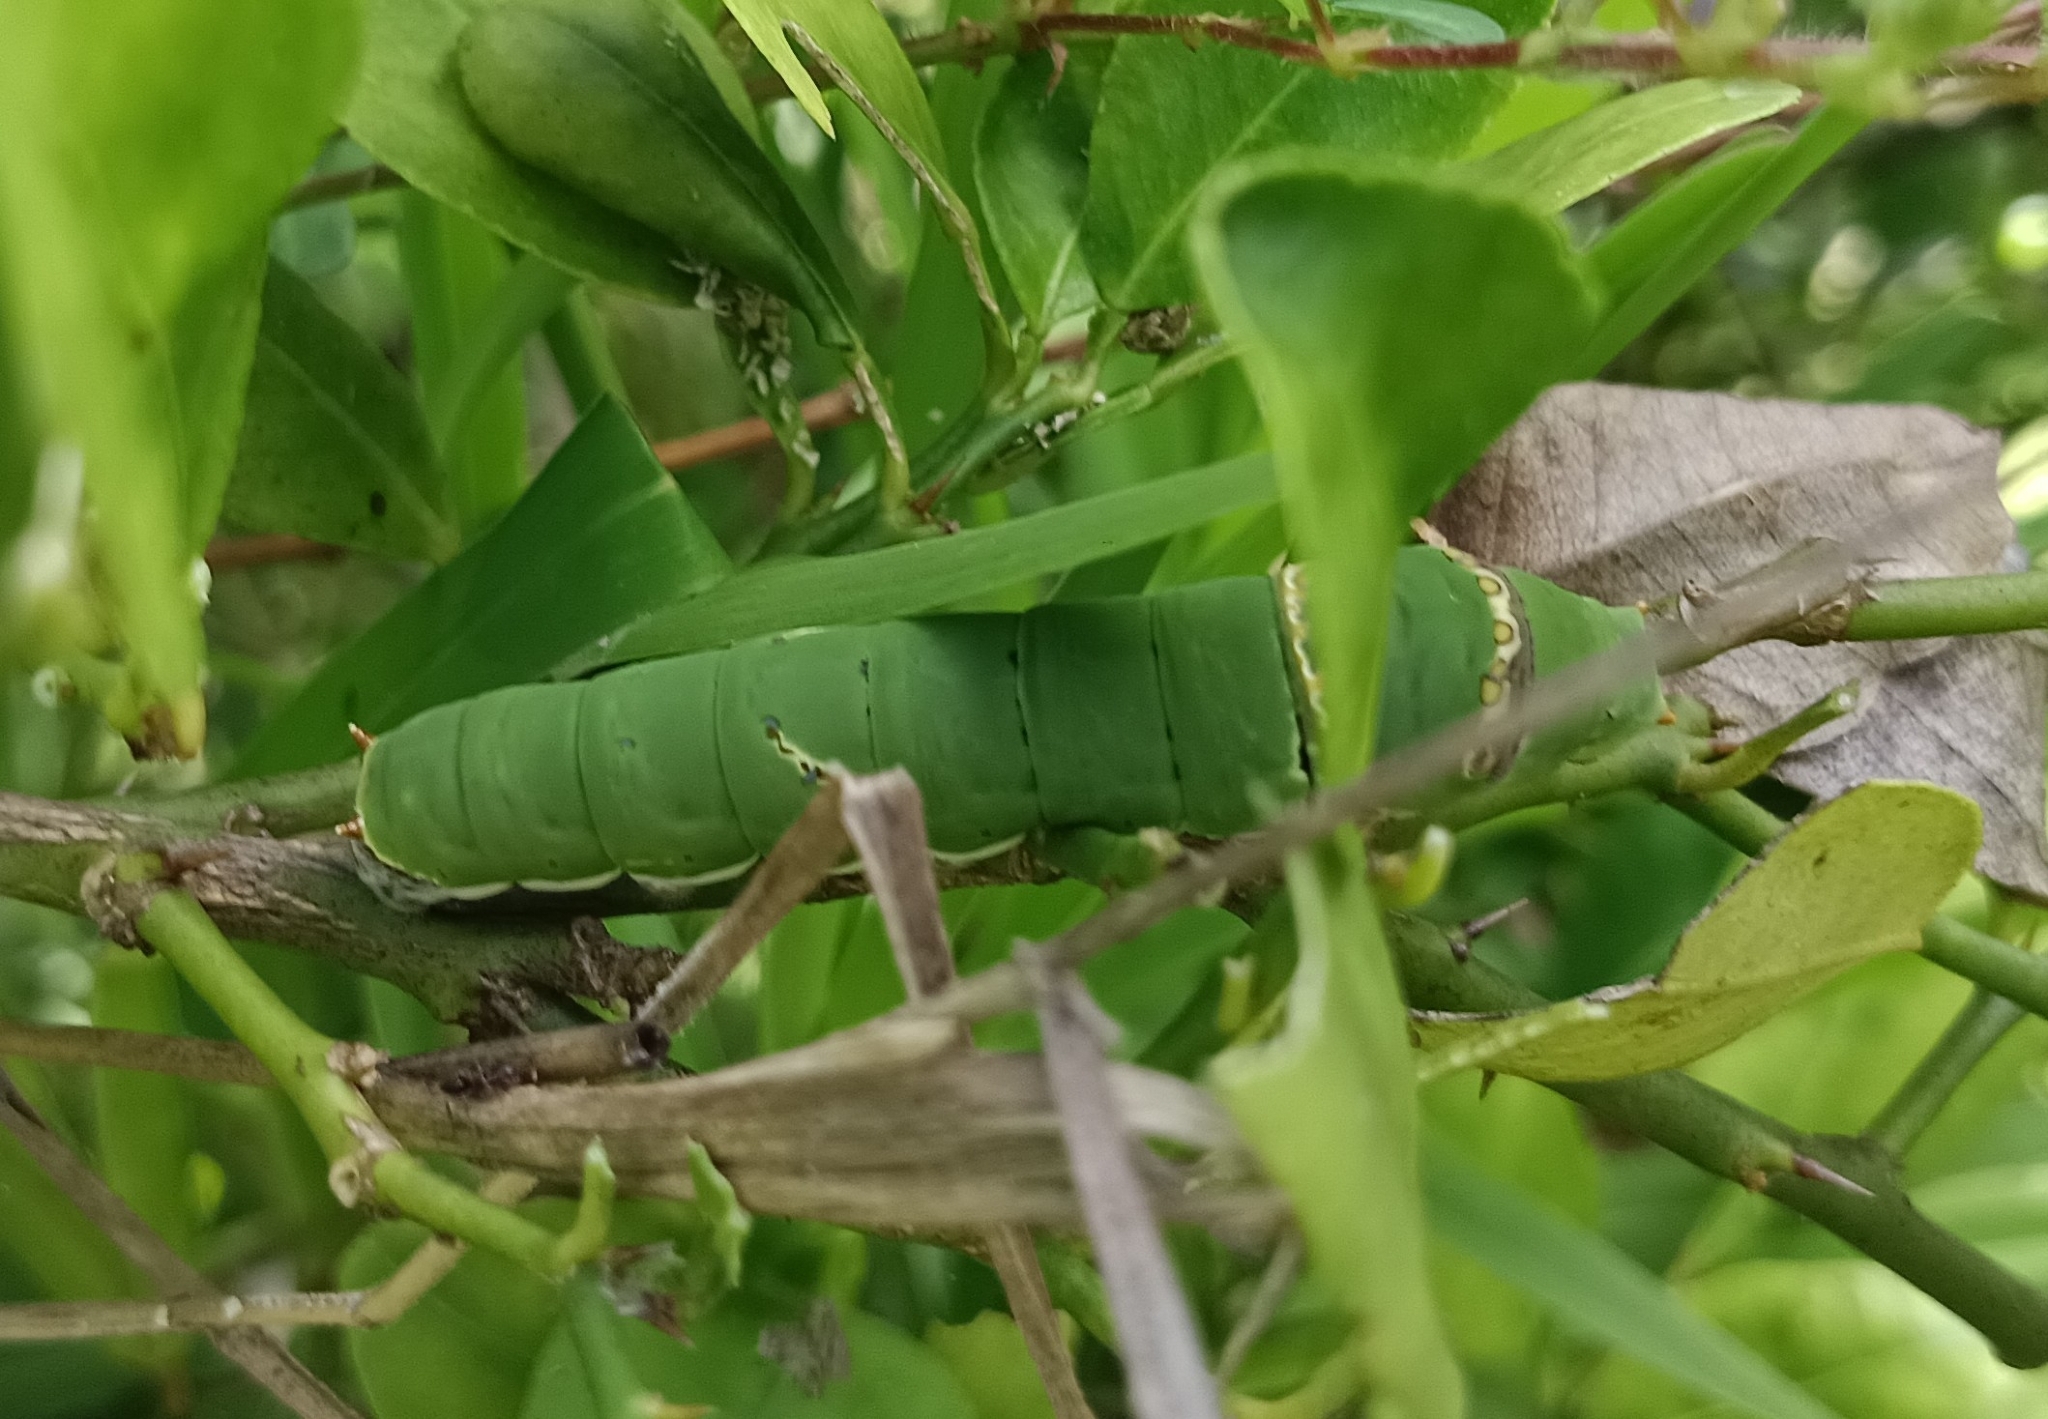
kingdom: Animalia
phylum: Arthropoda
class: Insecta
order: Lepidoptera
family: Papilionidae
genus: Papilio
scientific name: Papilio demoleus
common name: Lime butterfly
